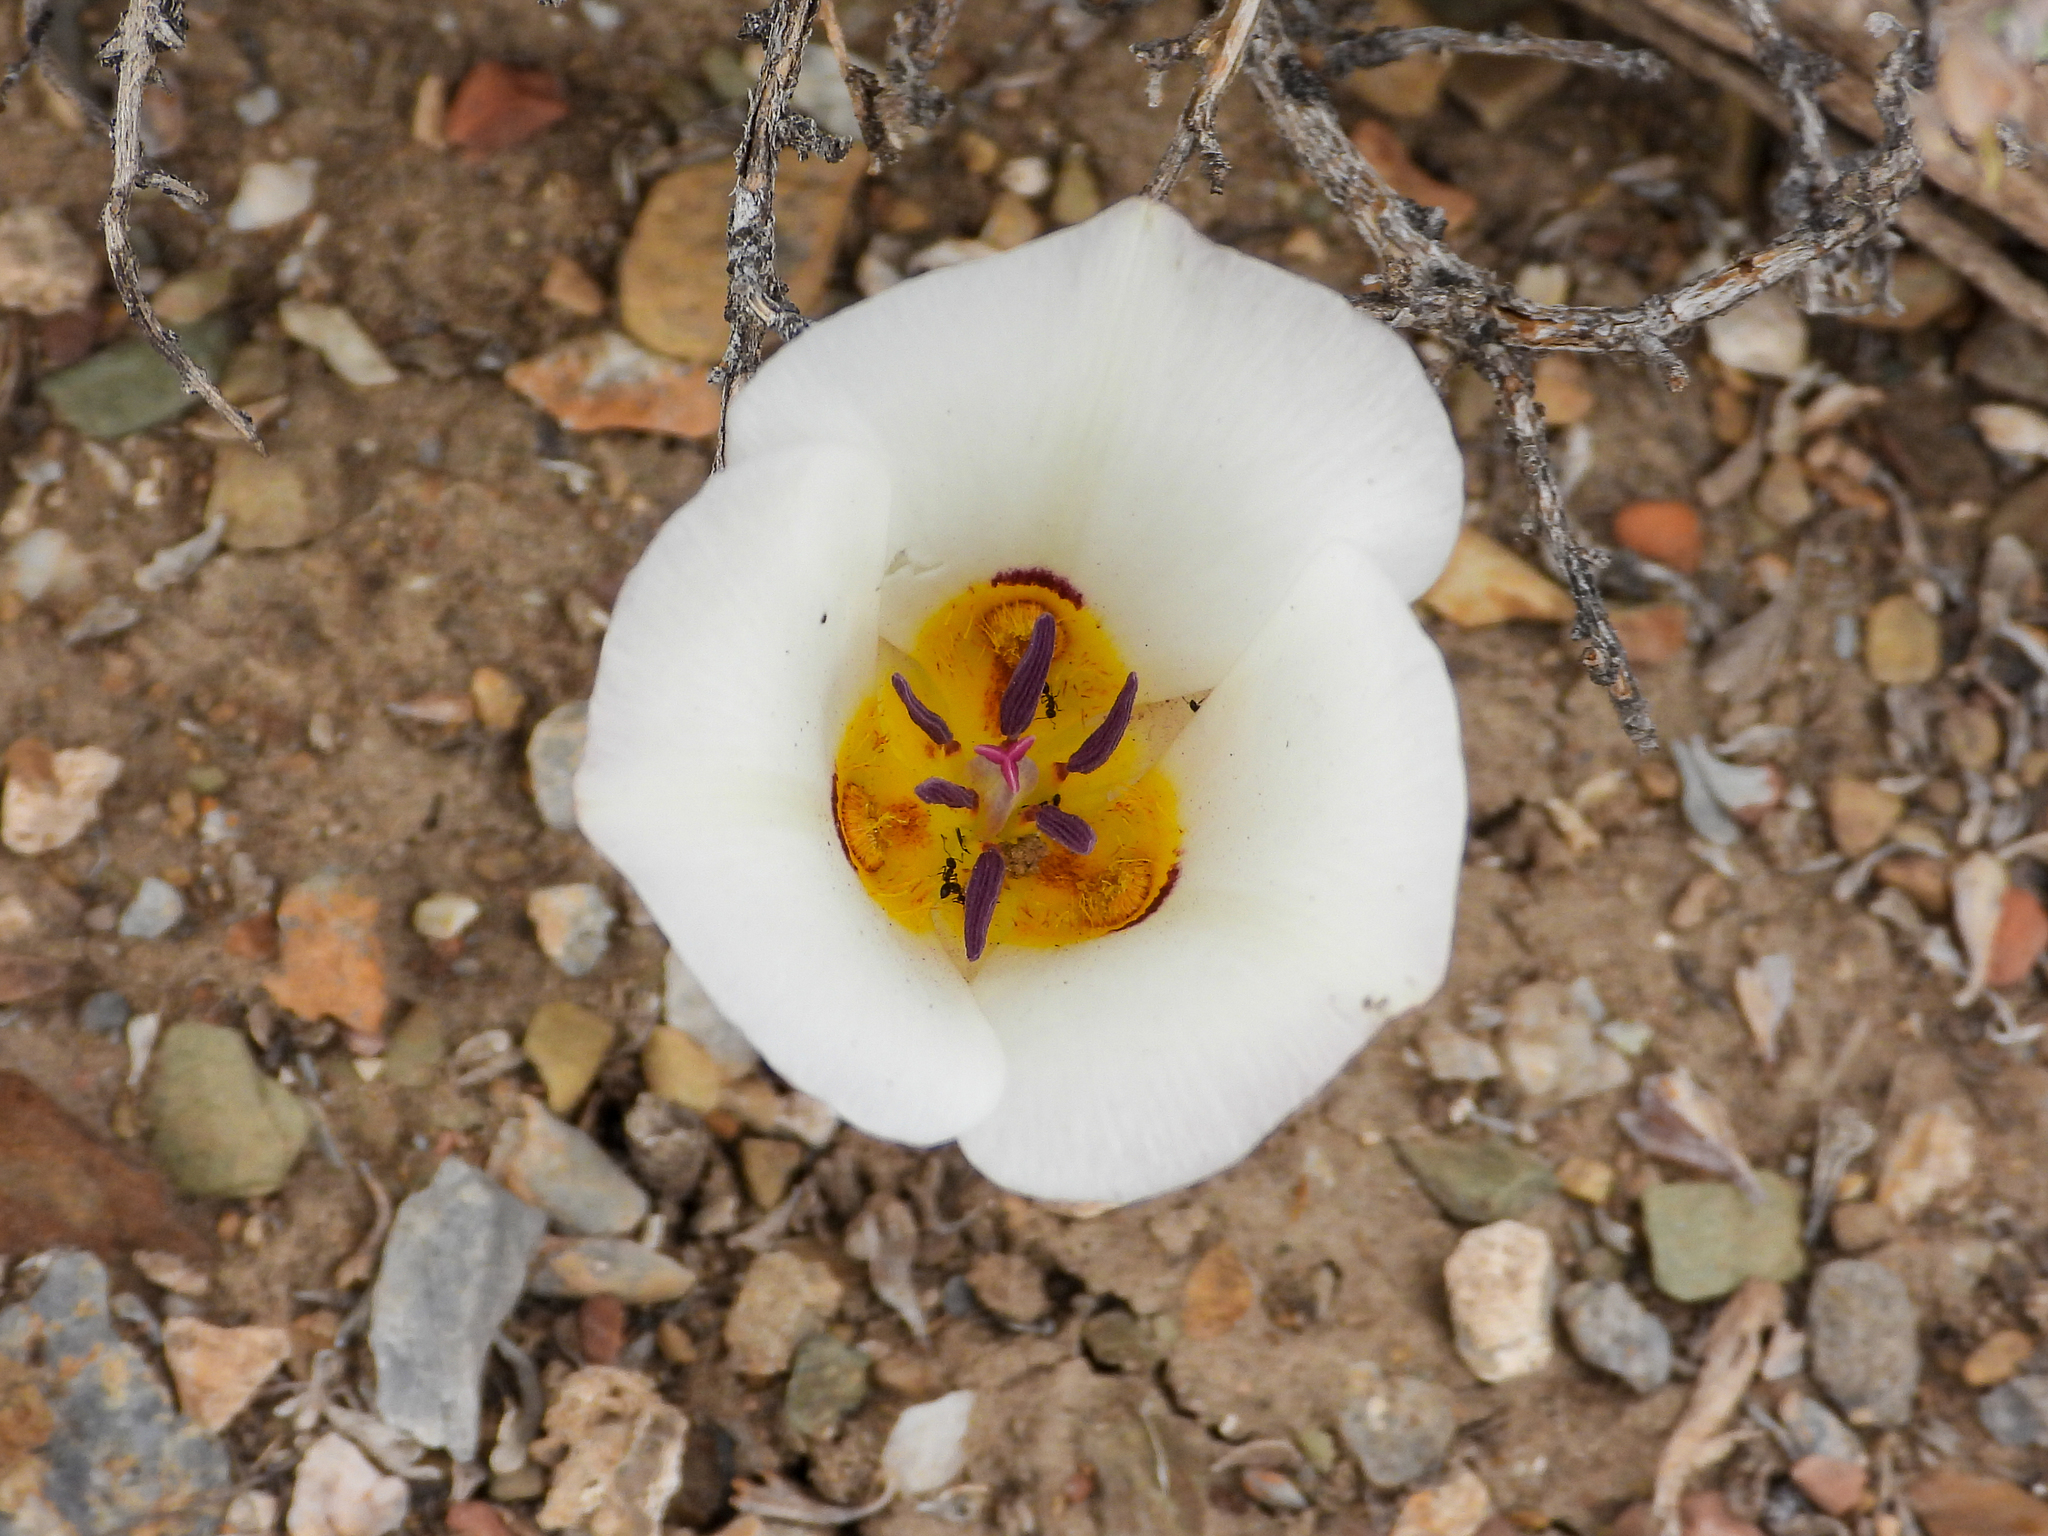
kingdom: Plantae
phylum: Tracheophyta
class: Liliopsida
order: Liliales
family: Liliaceae
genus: Calochortus
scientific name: Calochortus bruneaunis
